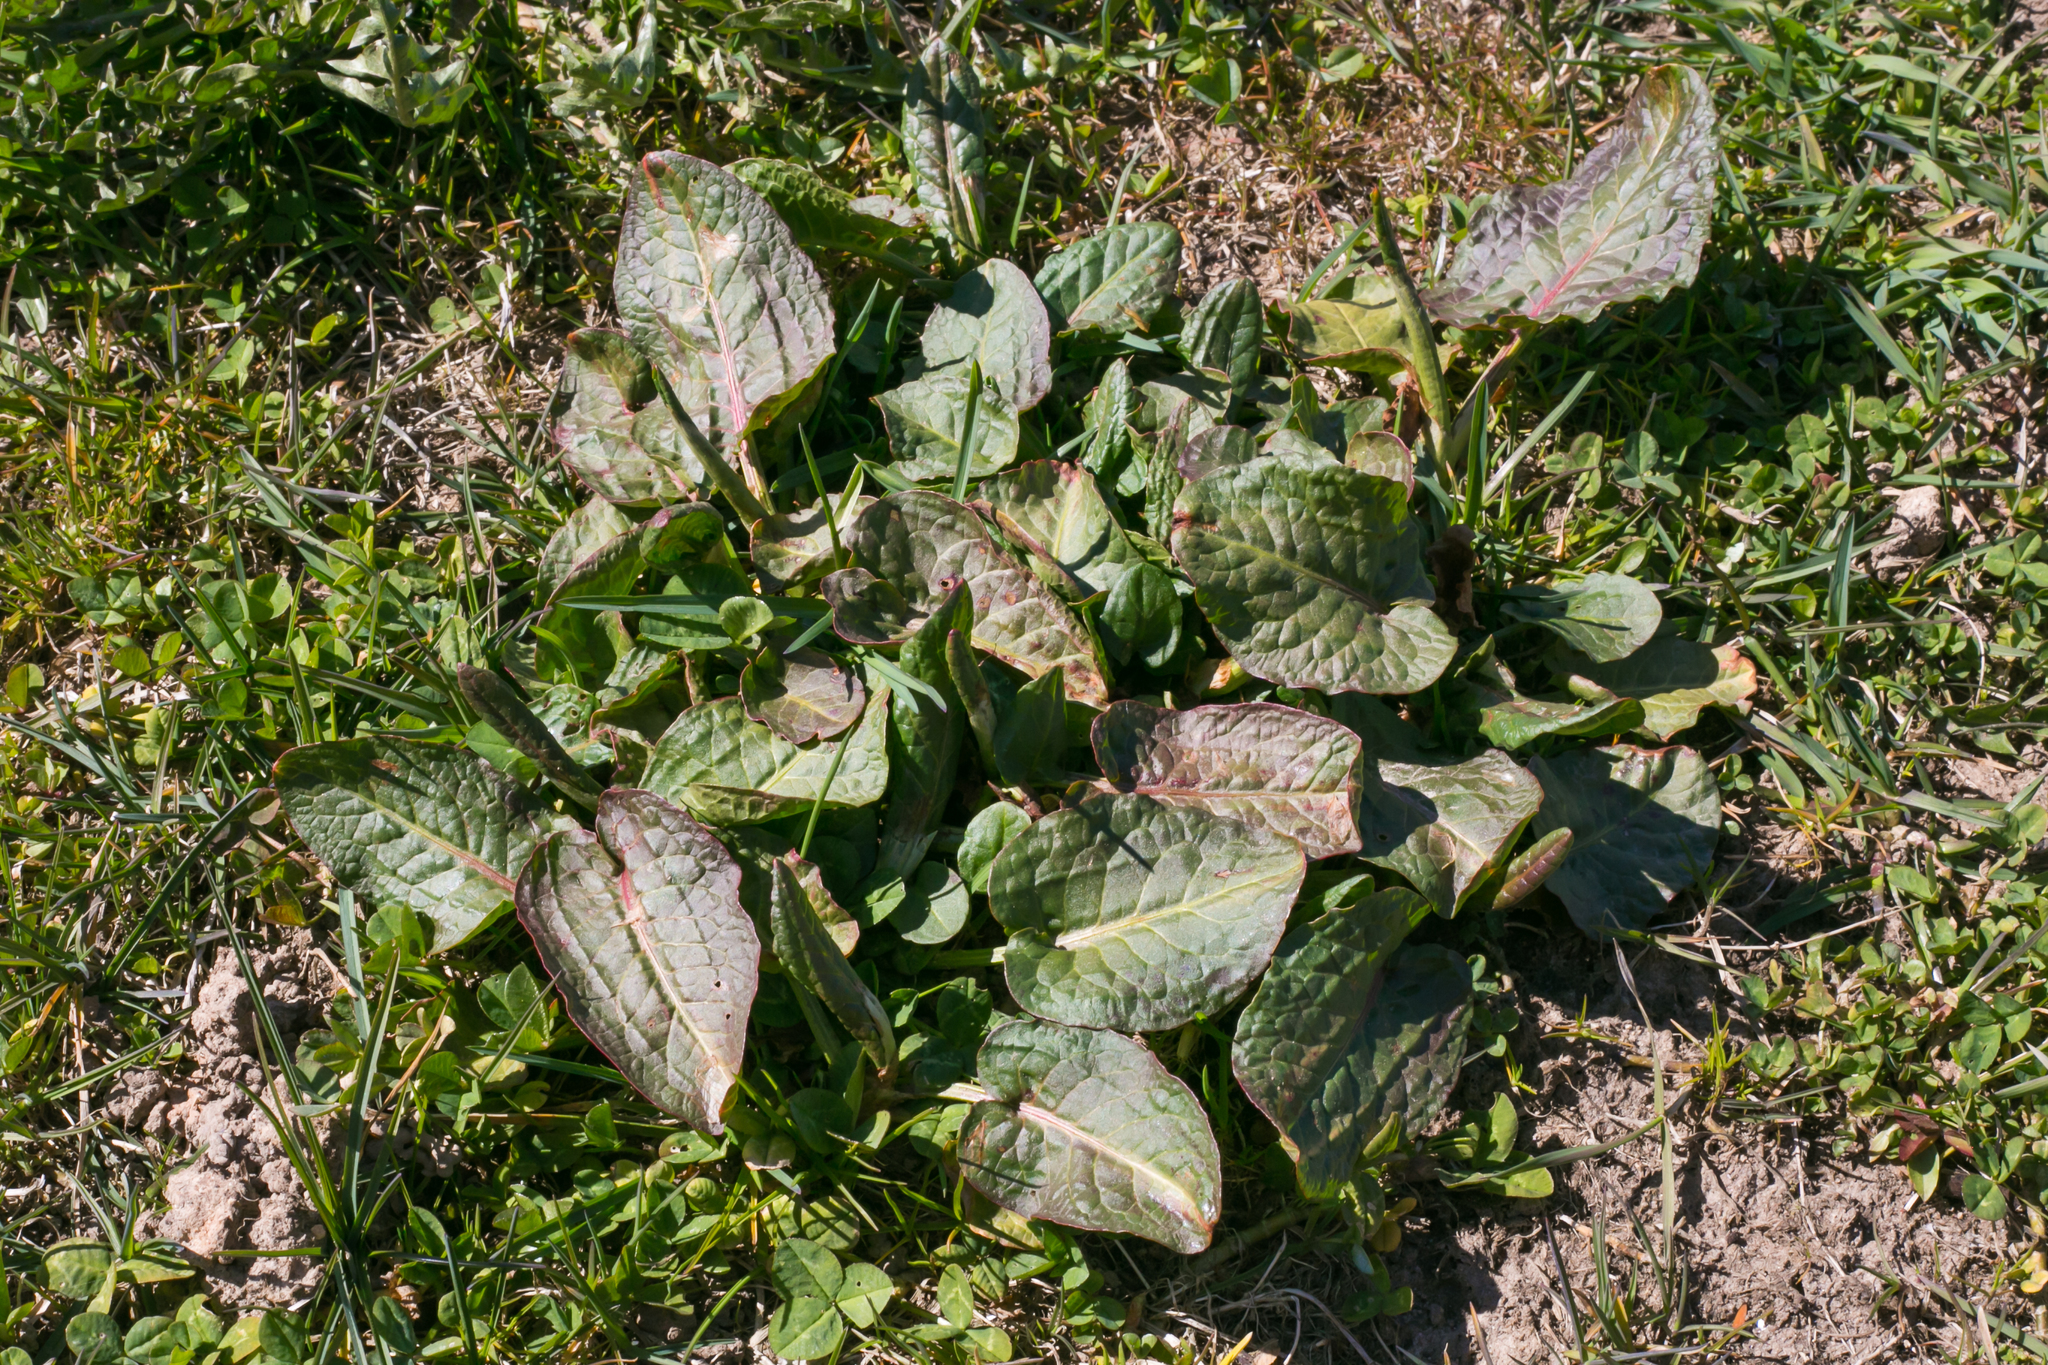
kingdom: Plantae
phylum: Tracheophyta
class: Magnoliopsida
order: Caryophyllales
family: Polygonaceae
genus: Rumex
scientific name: Rumex obtusifolius
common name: Bitter dock
